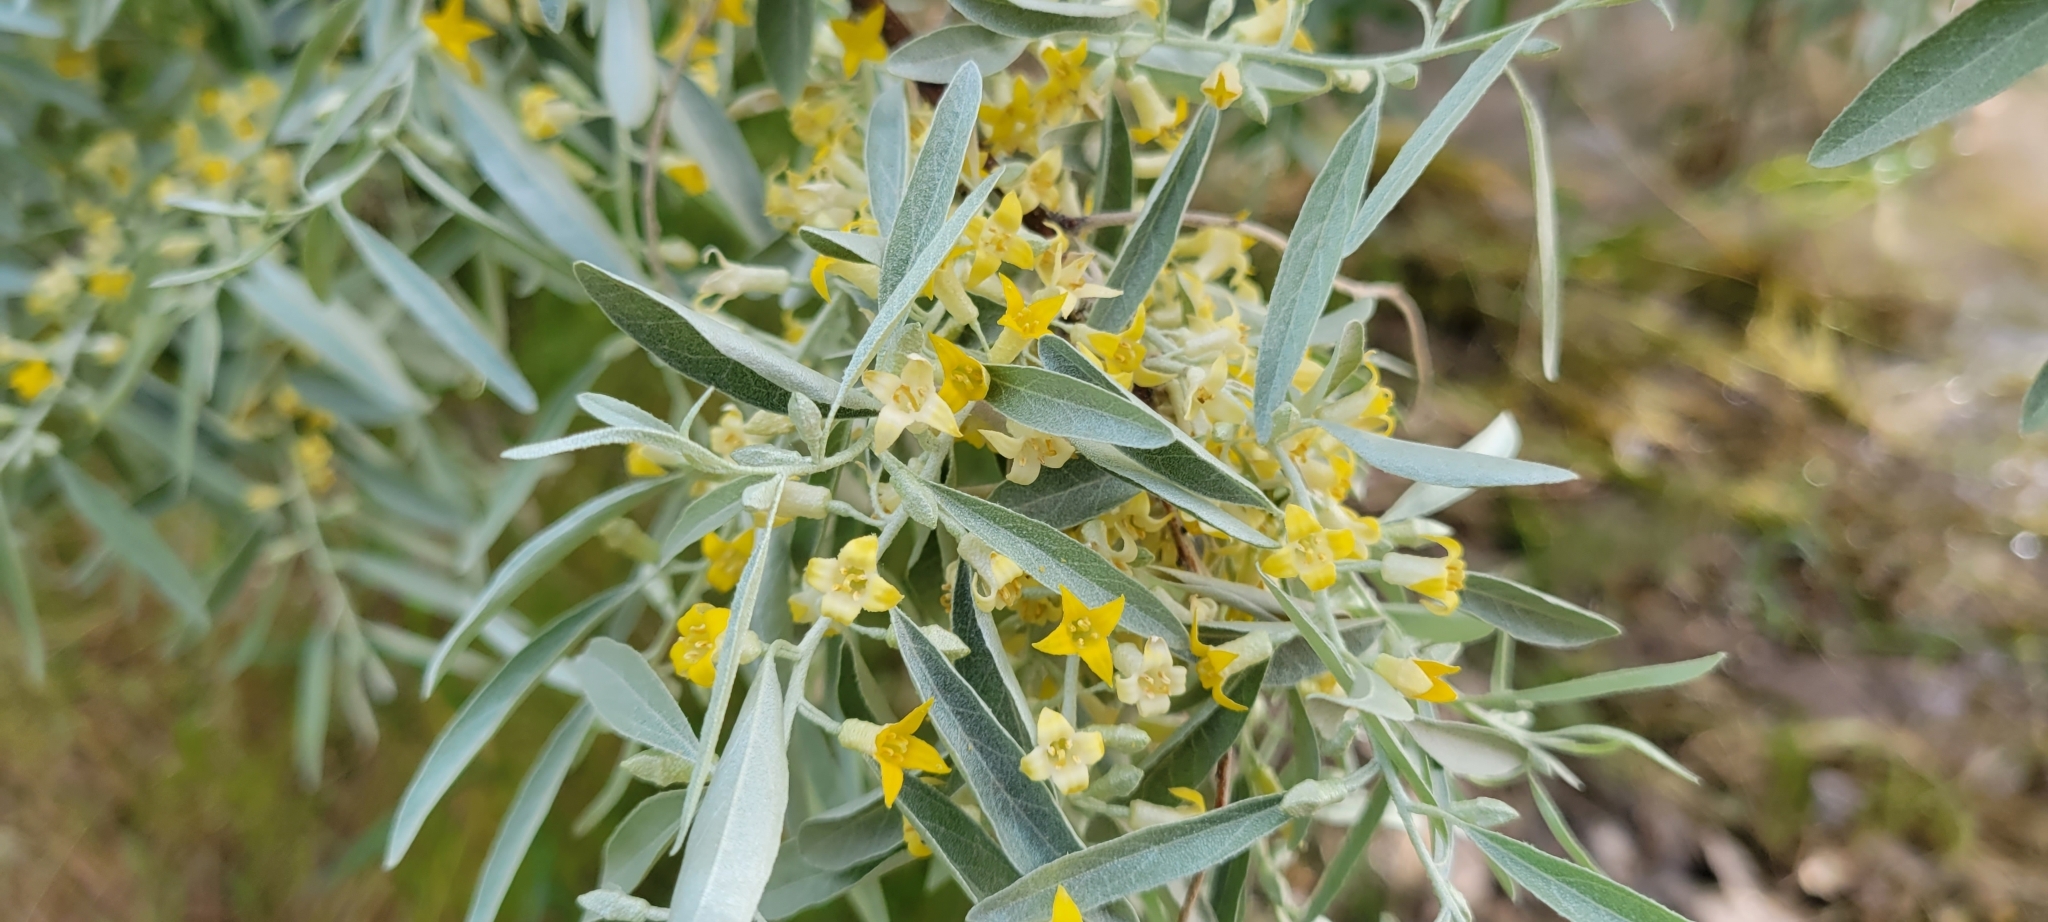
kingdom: Plantae
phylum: Tracheophyta
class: Magnoliopsida
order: Rosales
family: Elaeagnaceae
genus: Elaeagnus
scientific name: Elaeagnus angustifolia
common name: Russian olive
